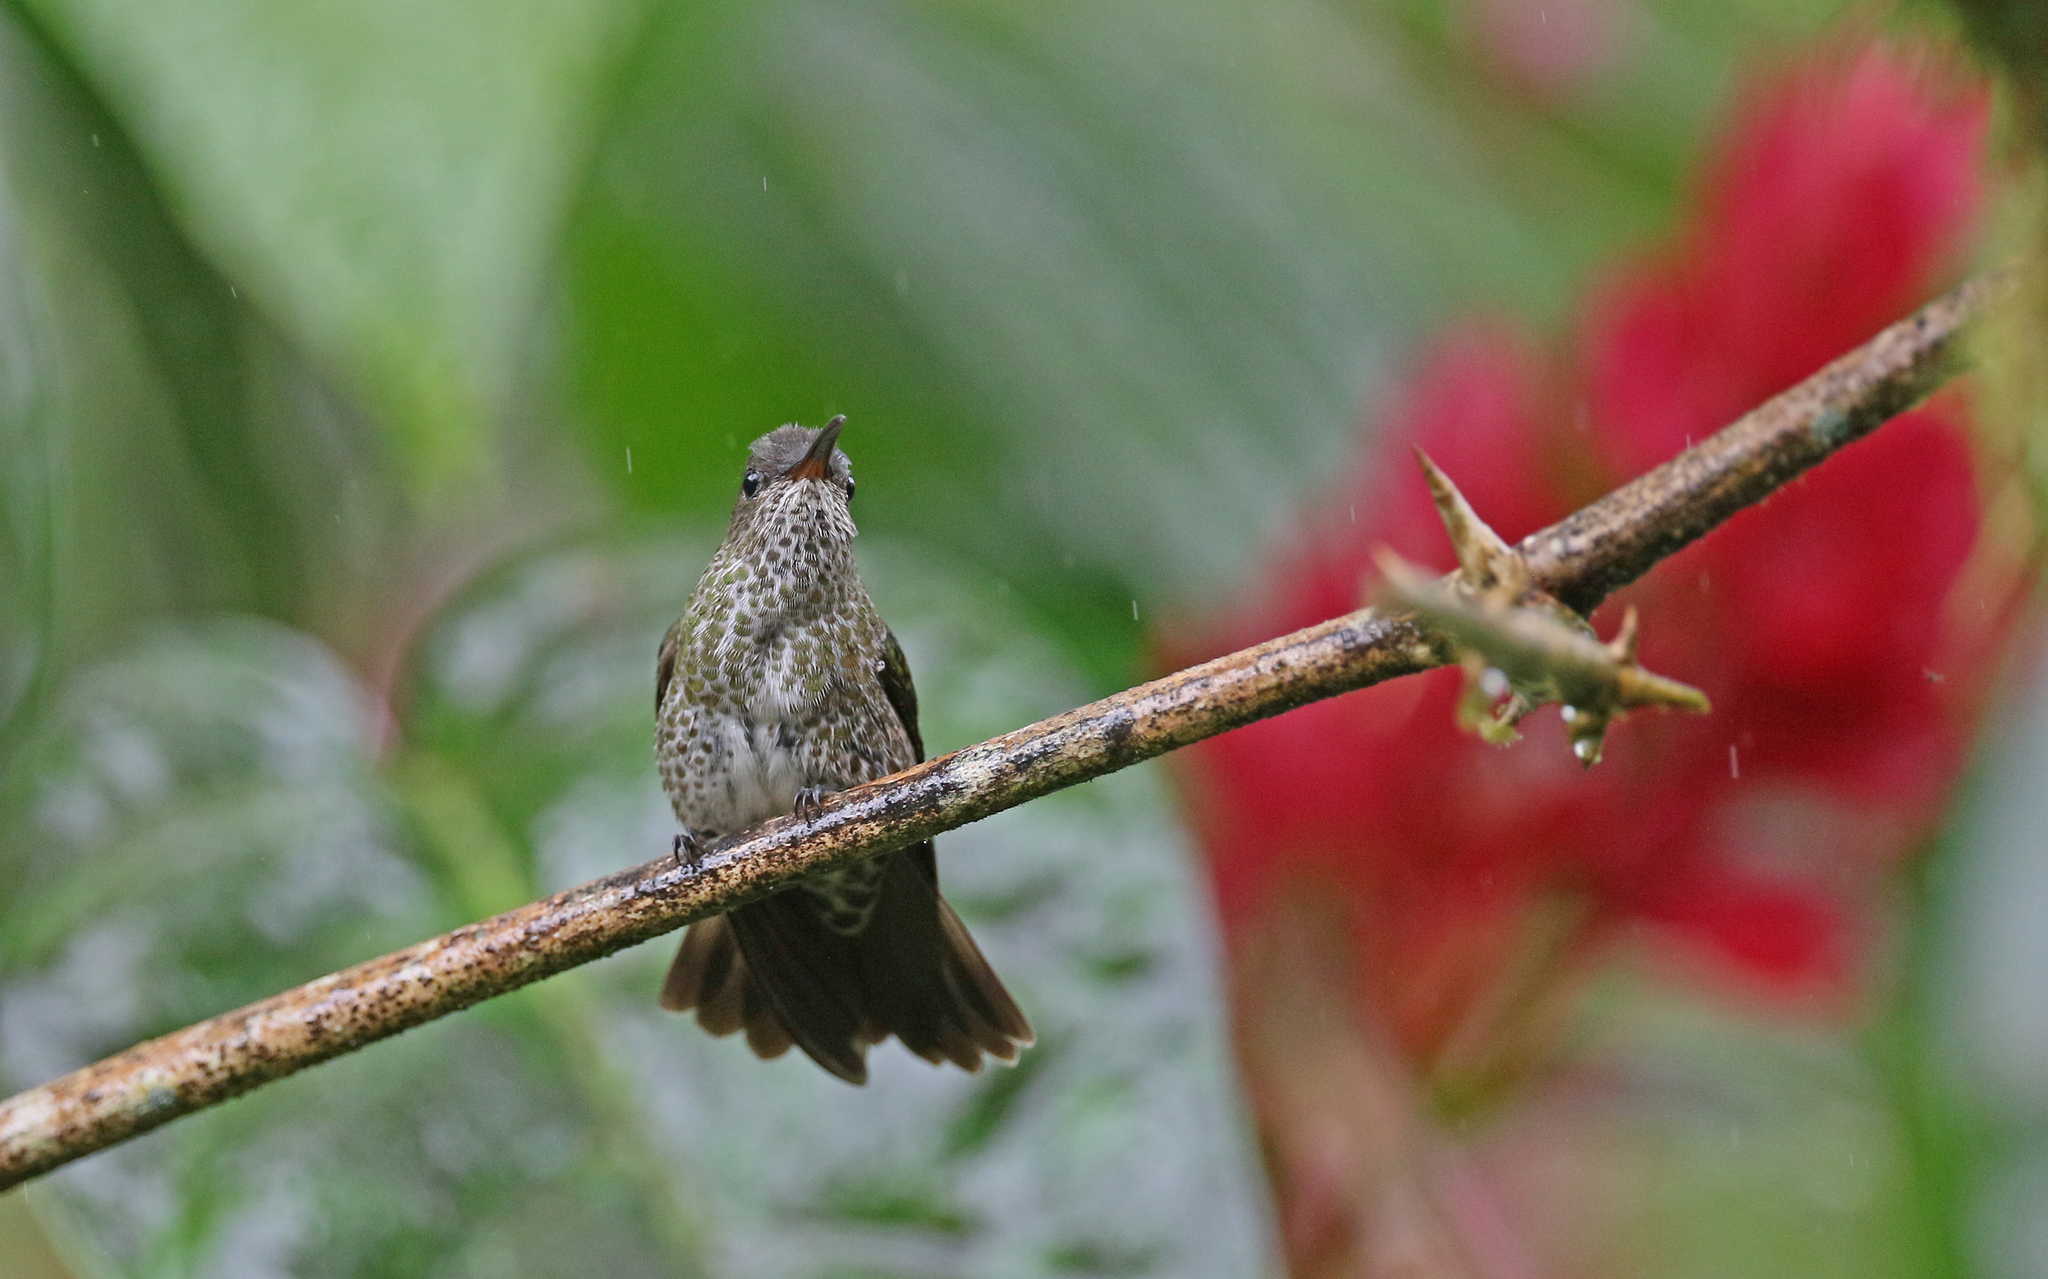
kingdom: Animalia
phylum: Chordata
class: Aves
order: Apodiformes
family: Trochilidae
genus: Taphrospilus
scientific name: Taphrospilus hypostictus
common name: Many-spotted hummingbird
